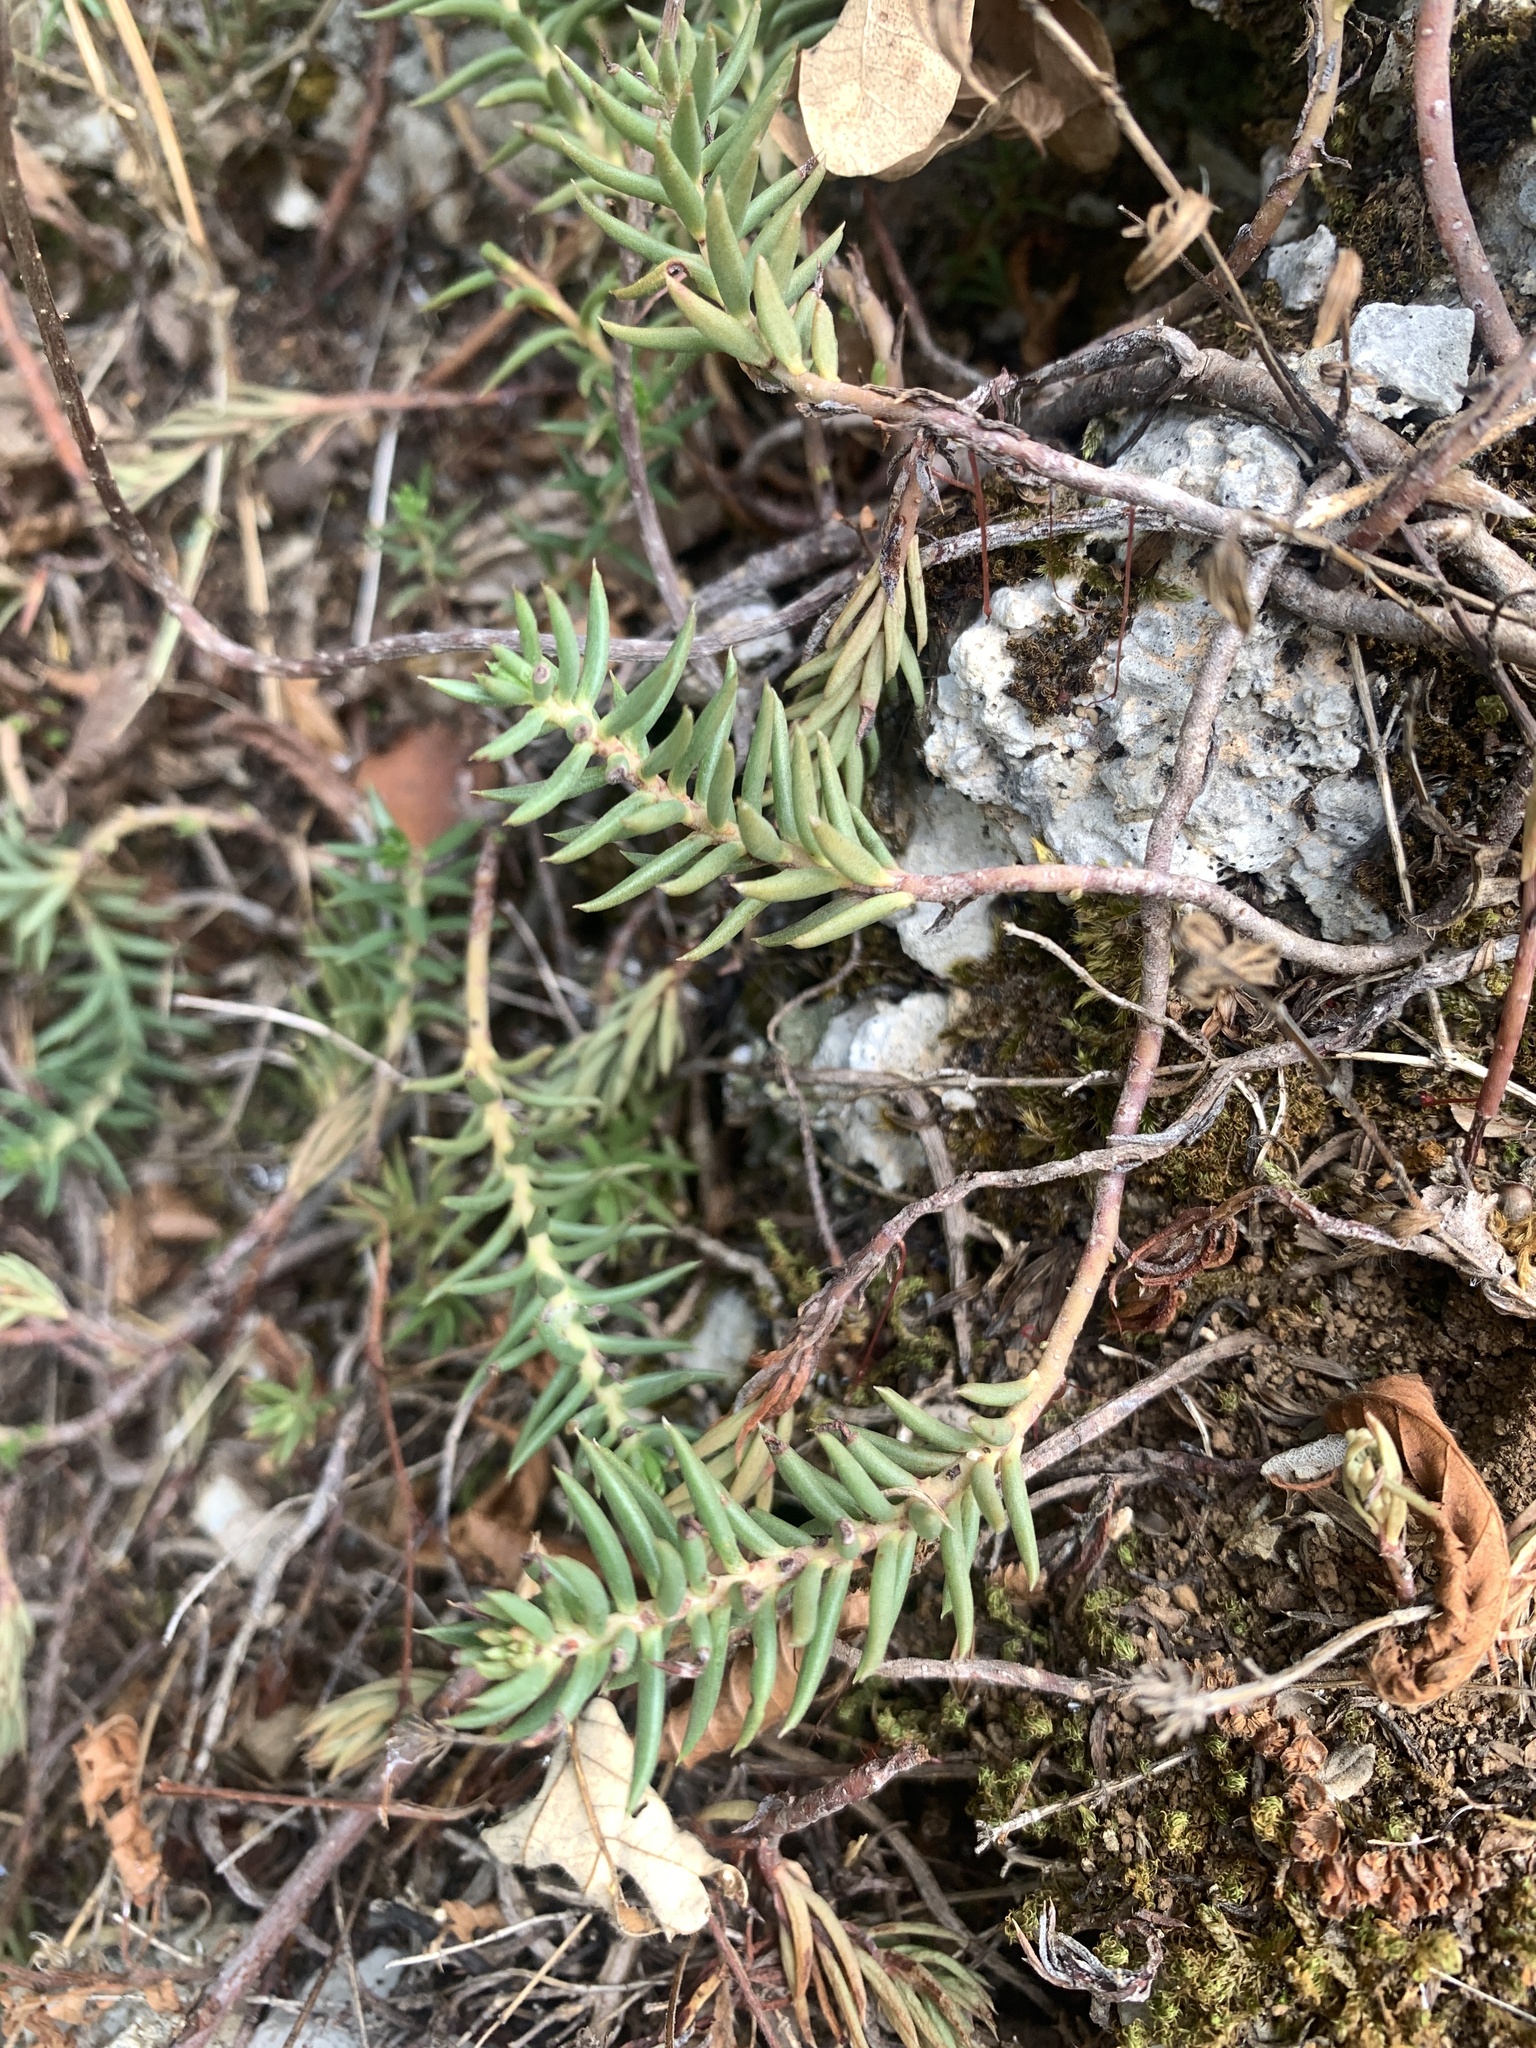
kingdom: Plantae
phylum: Tracheophyta
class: Magnoliopsida
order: Saxifragales
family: Crassulaceae
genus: Petrosedum
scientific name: Petrosedum ochroleucum
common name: European stonecrop
